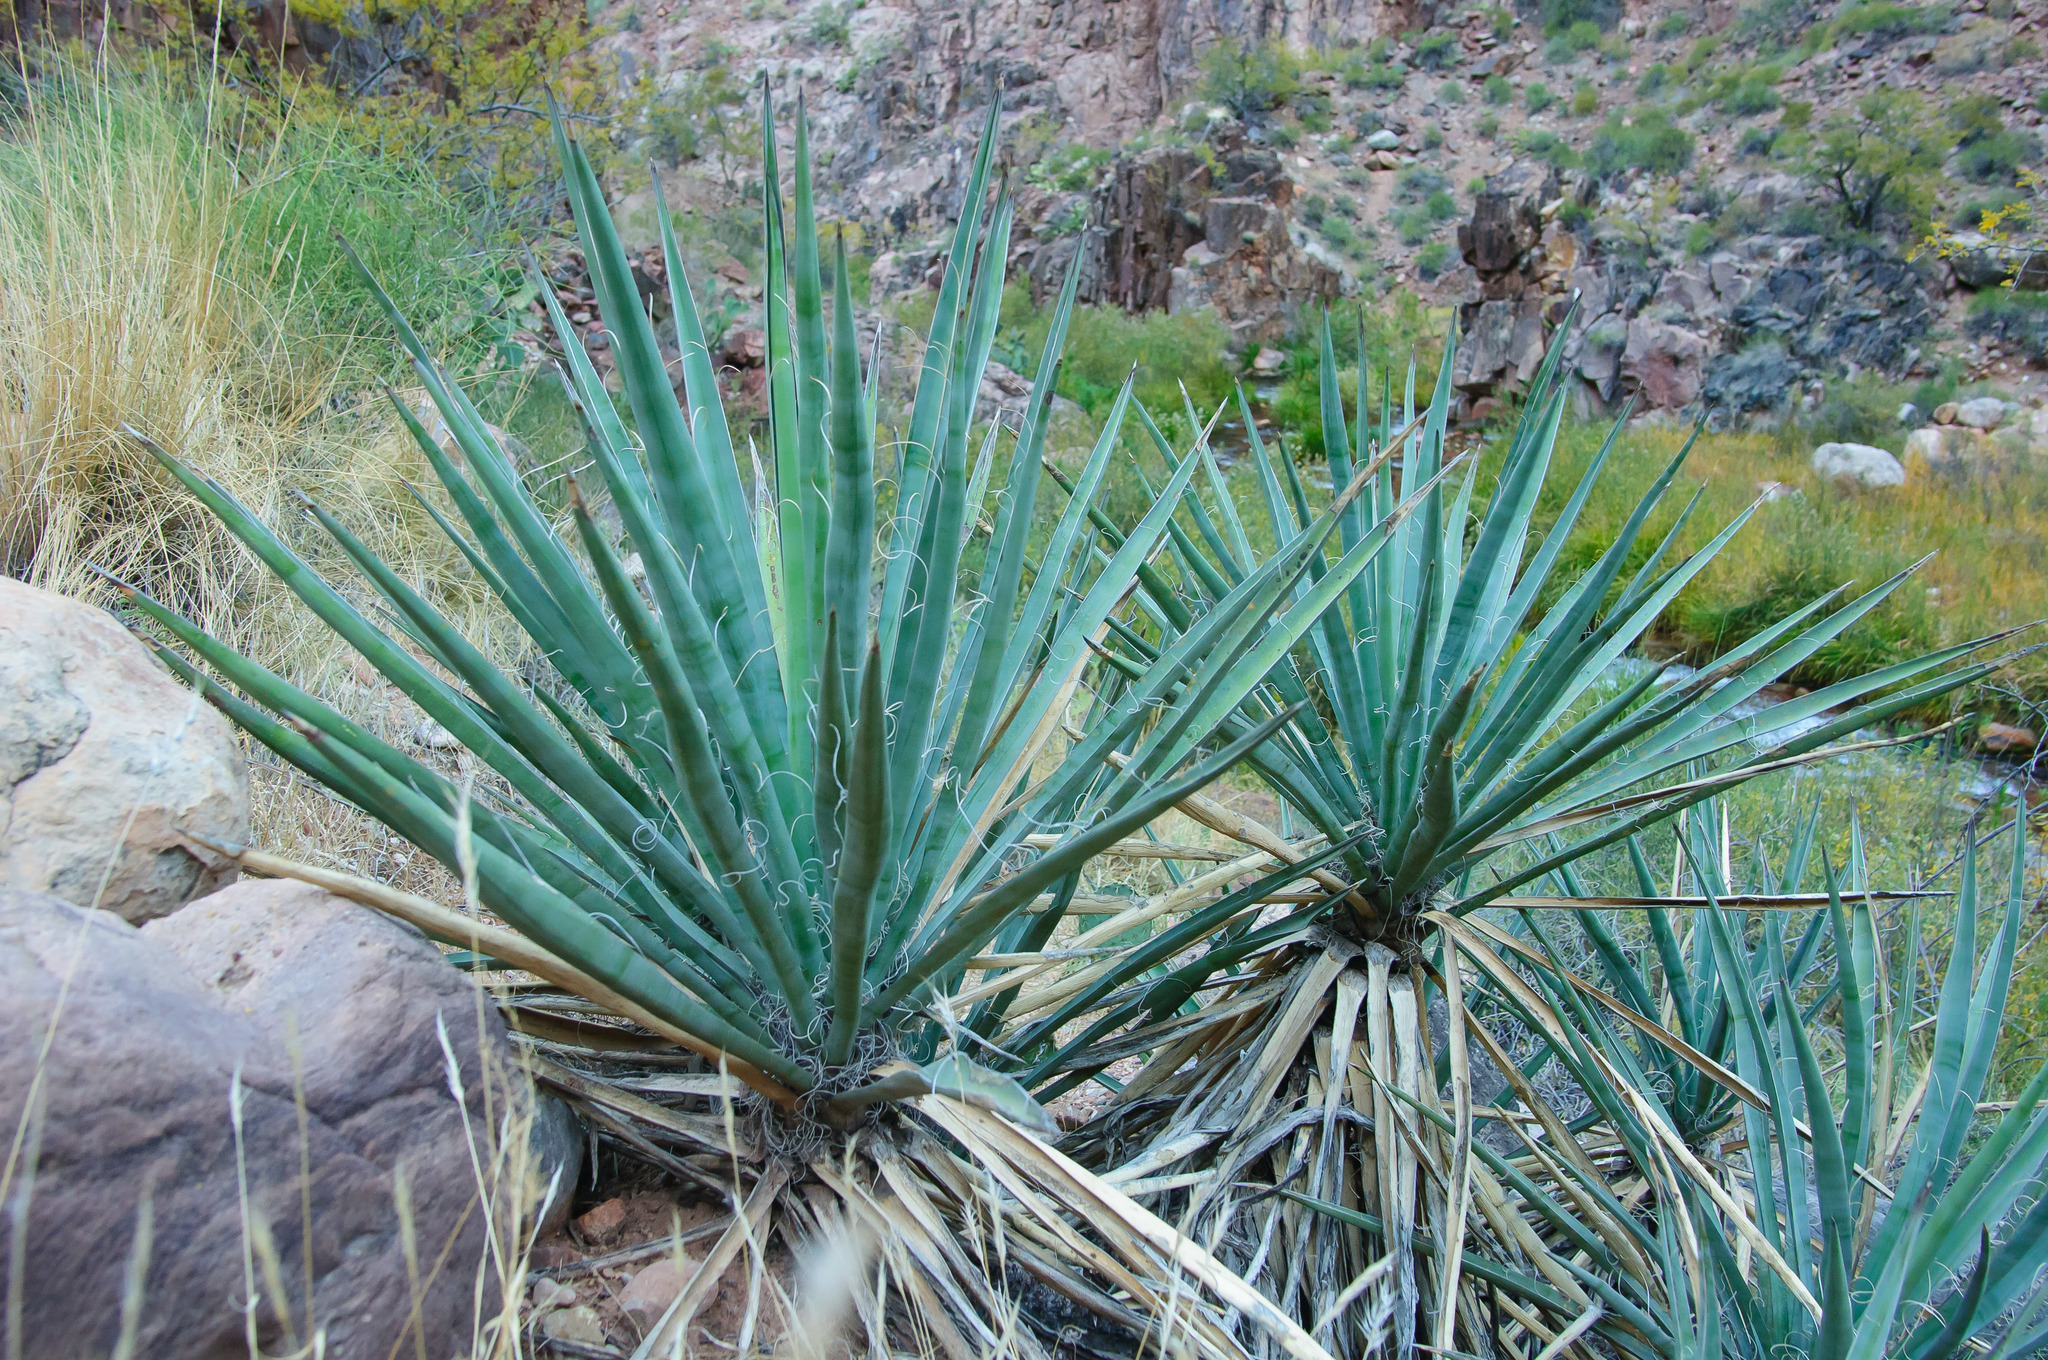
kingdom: Plantae
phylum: Tracheophyta
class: Liliopsida
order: Asparagales
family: Asparagaceae
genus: Yucca
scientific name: Yucca baccata
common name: Banana yucca
